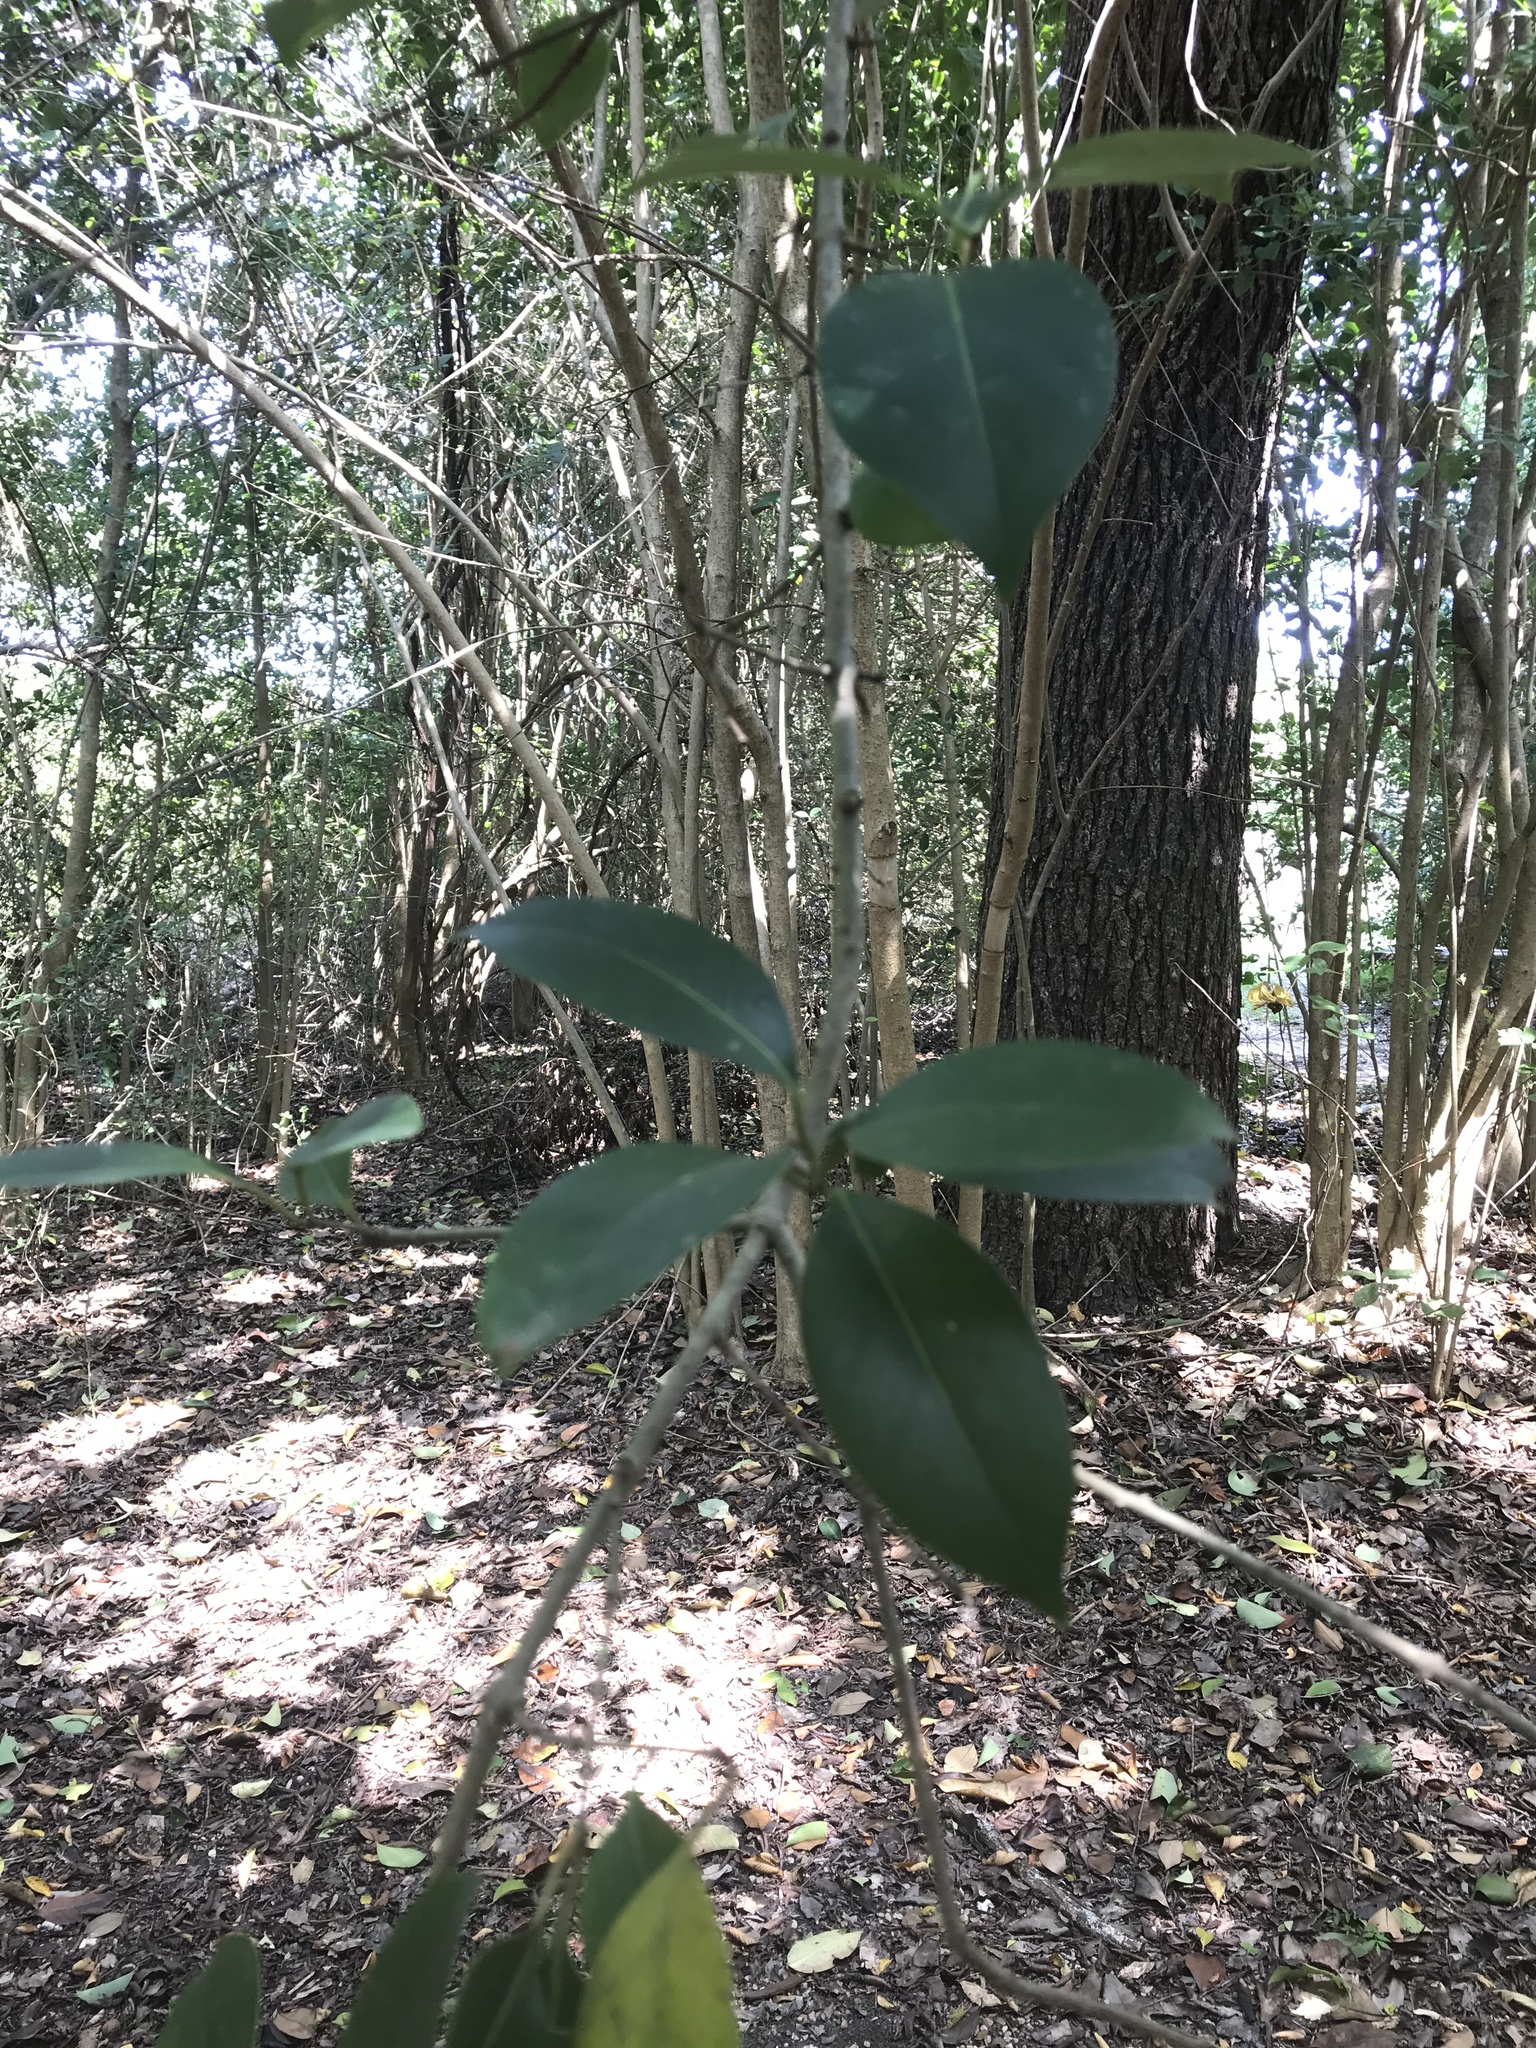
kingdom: Plantae
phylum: Tracheophyta
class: Magnoliopsida
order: Lamiales
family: Oleaceae
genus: Ligustrum
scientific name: Ligustrum lucidum
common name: Glossy privet
